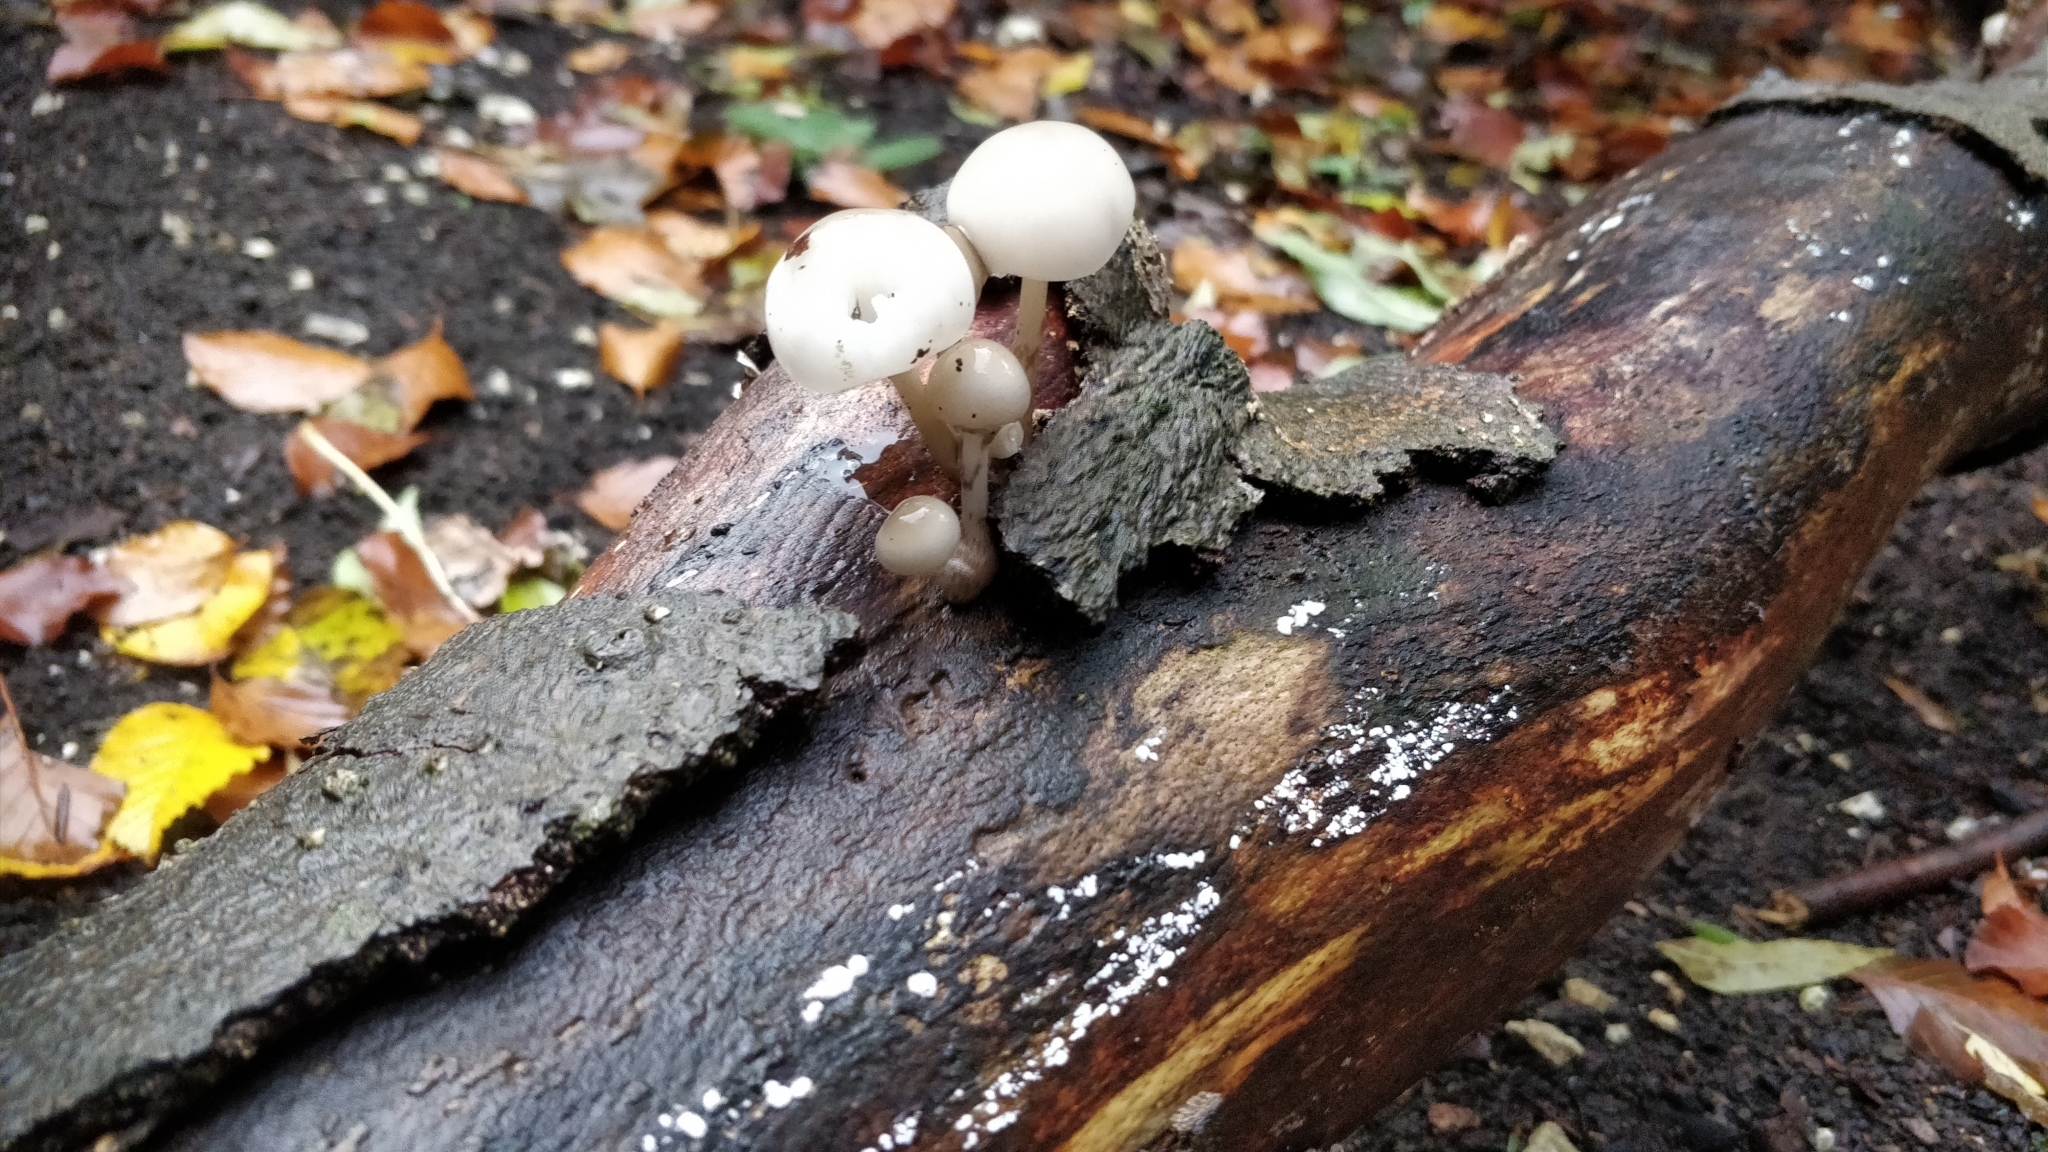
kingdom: Fungi
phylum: Basidiomycota
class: Agaricomycetes
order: Agaricales
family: Physalacriaceae
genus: Mucidula
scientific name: Mucidula mucida
